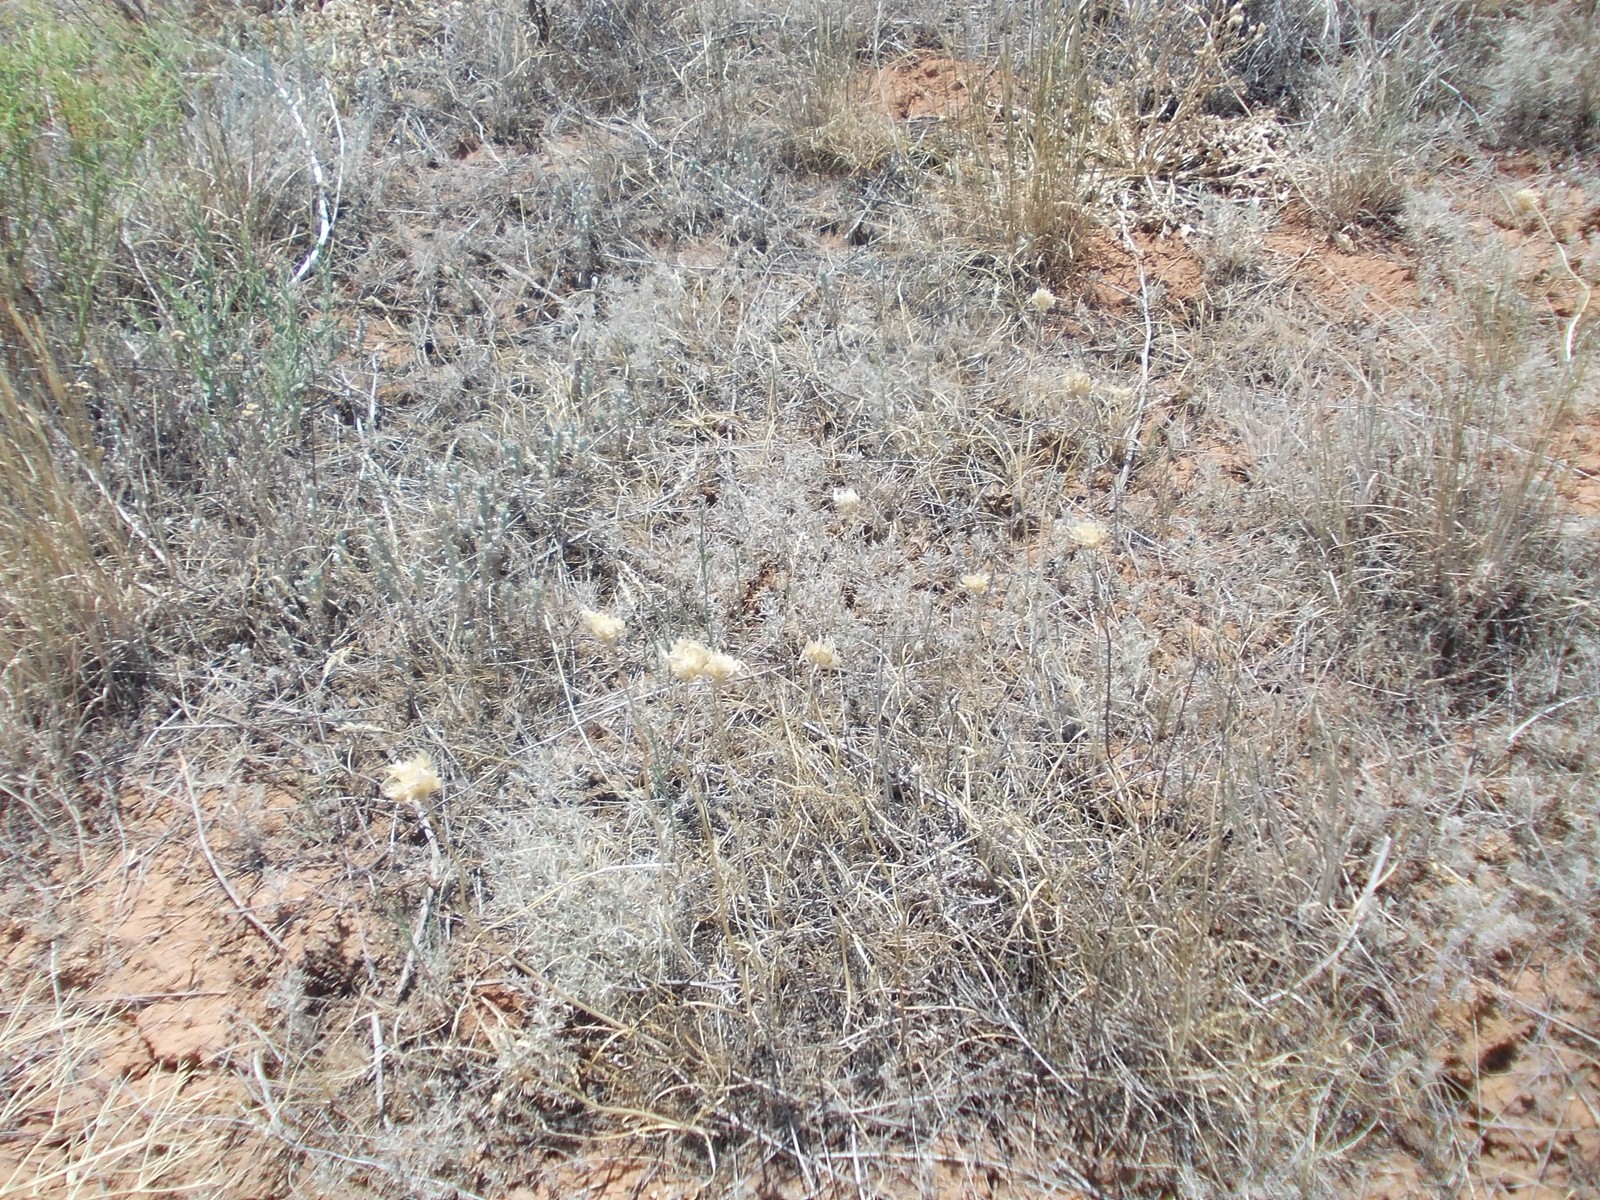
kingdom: Plantae
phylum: Tracheophyta
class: Liliopsida
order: Asparagales
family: Amaryllidaceae
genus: Allium
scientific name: Allium inderiense
